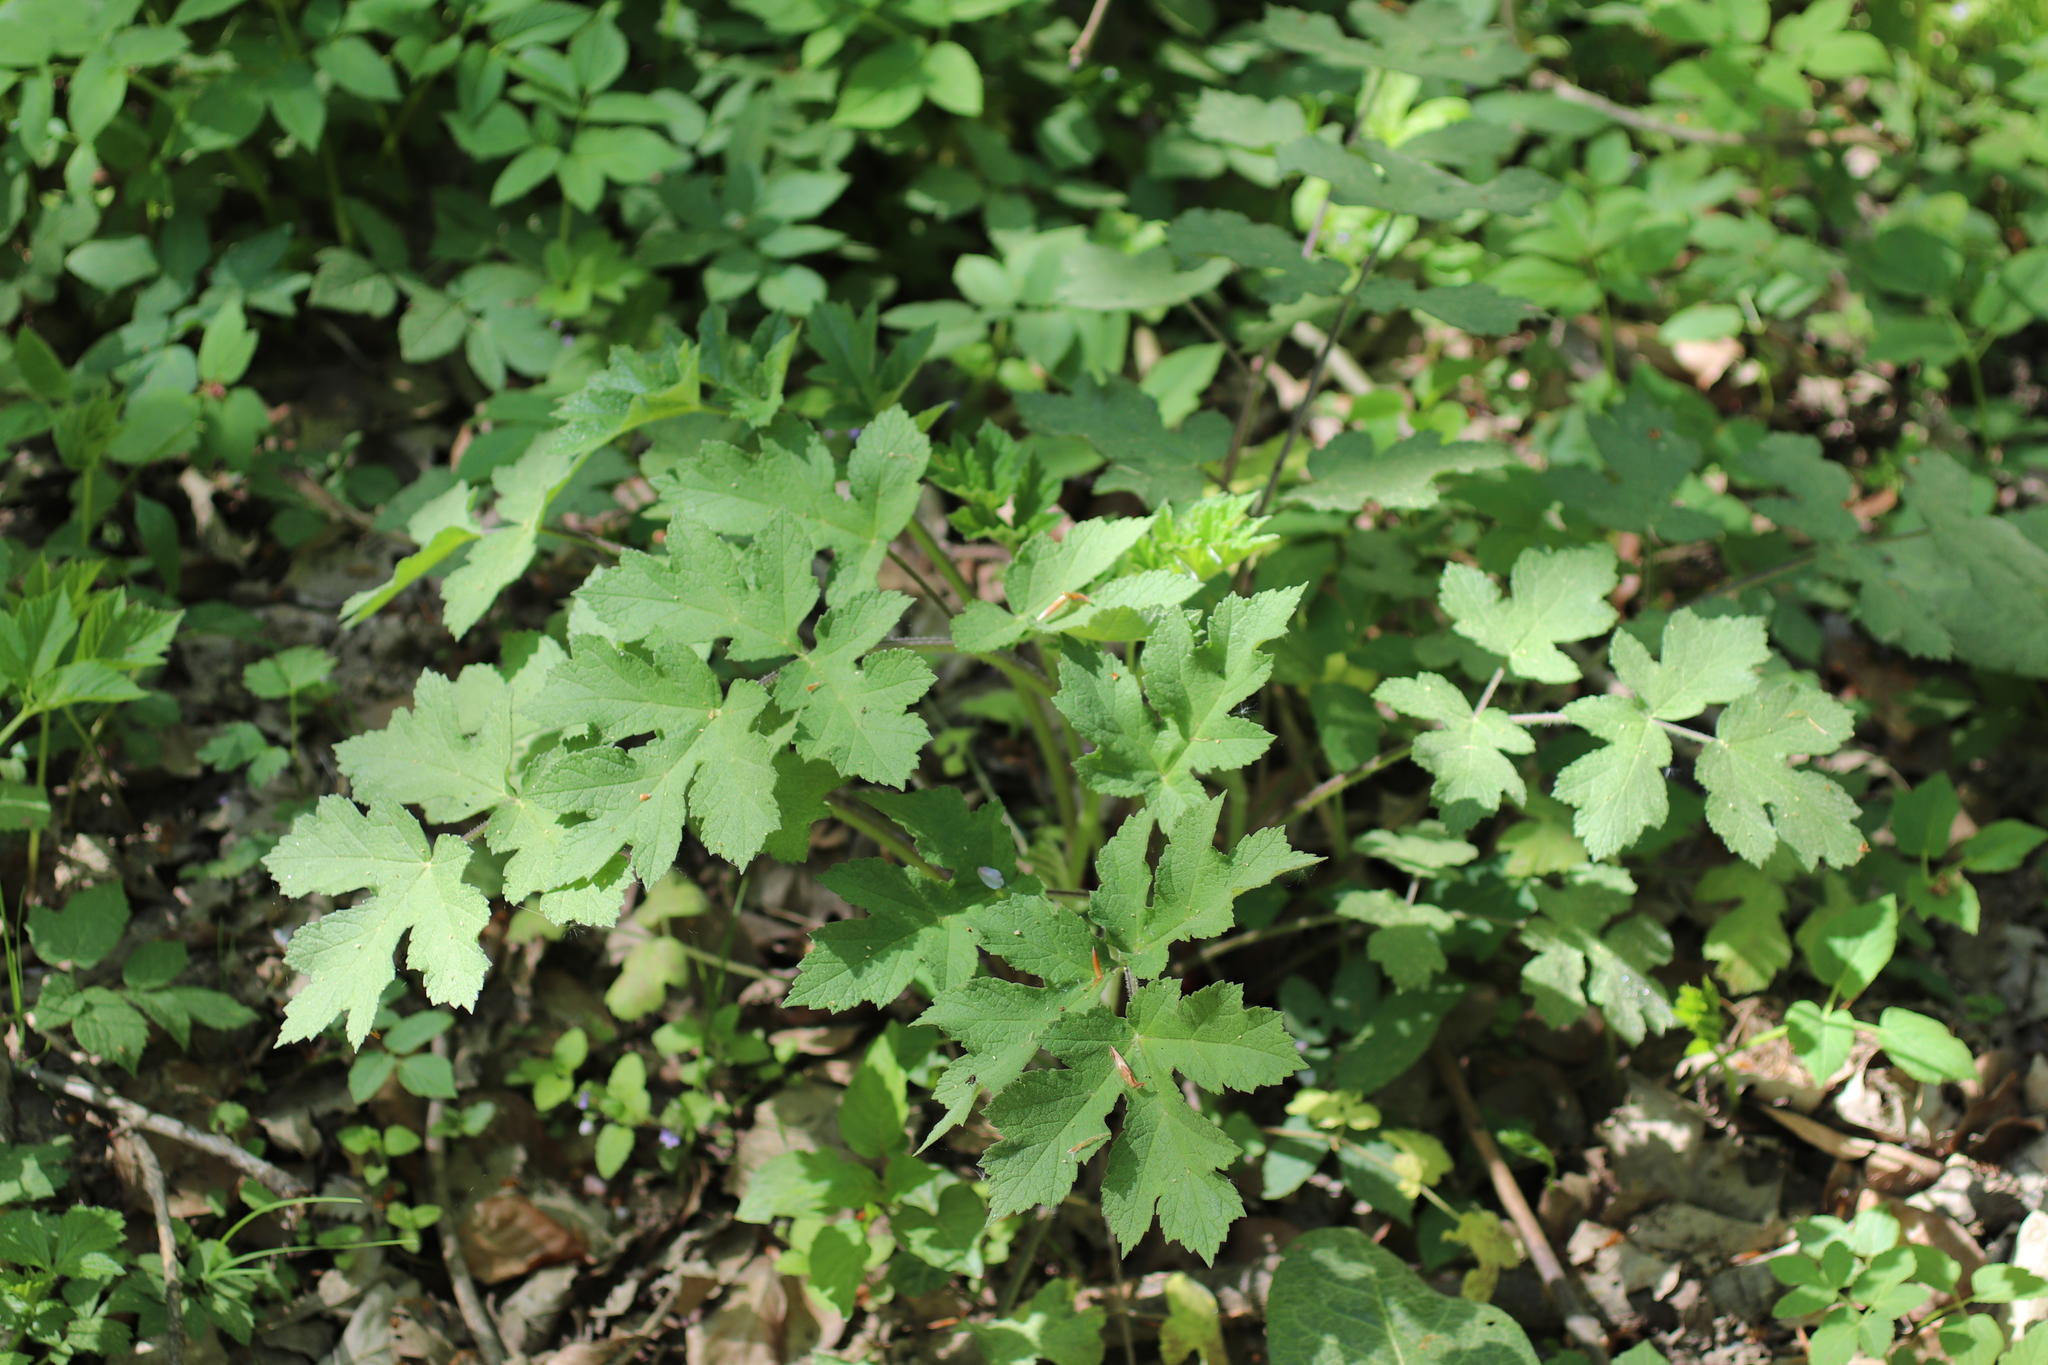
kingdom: Plantae
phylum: Tracheophyta
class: Magnoliopsida
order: Apiales
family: Apiaceae
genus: Heracleum
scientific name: Heracleum sphondylium
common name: Hogweed
